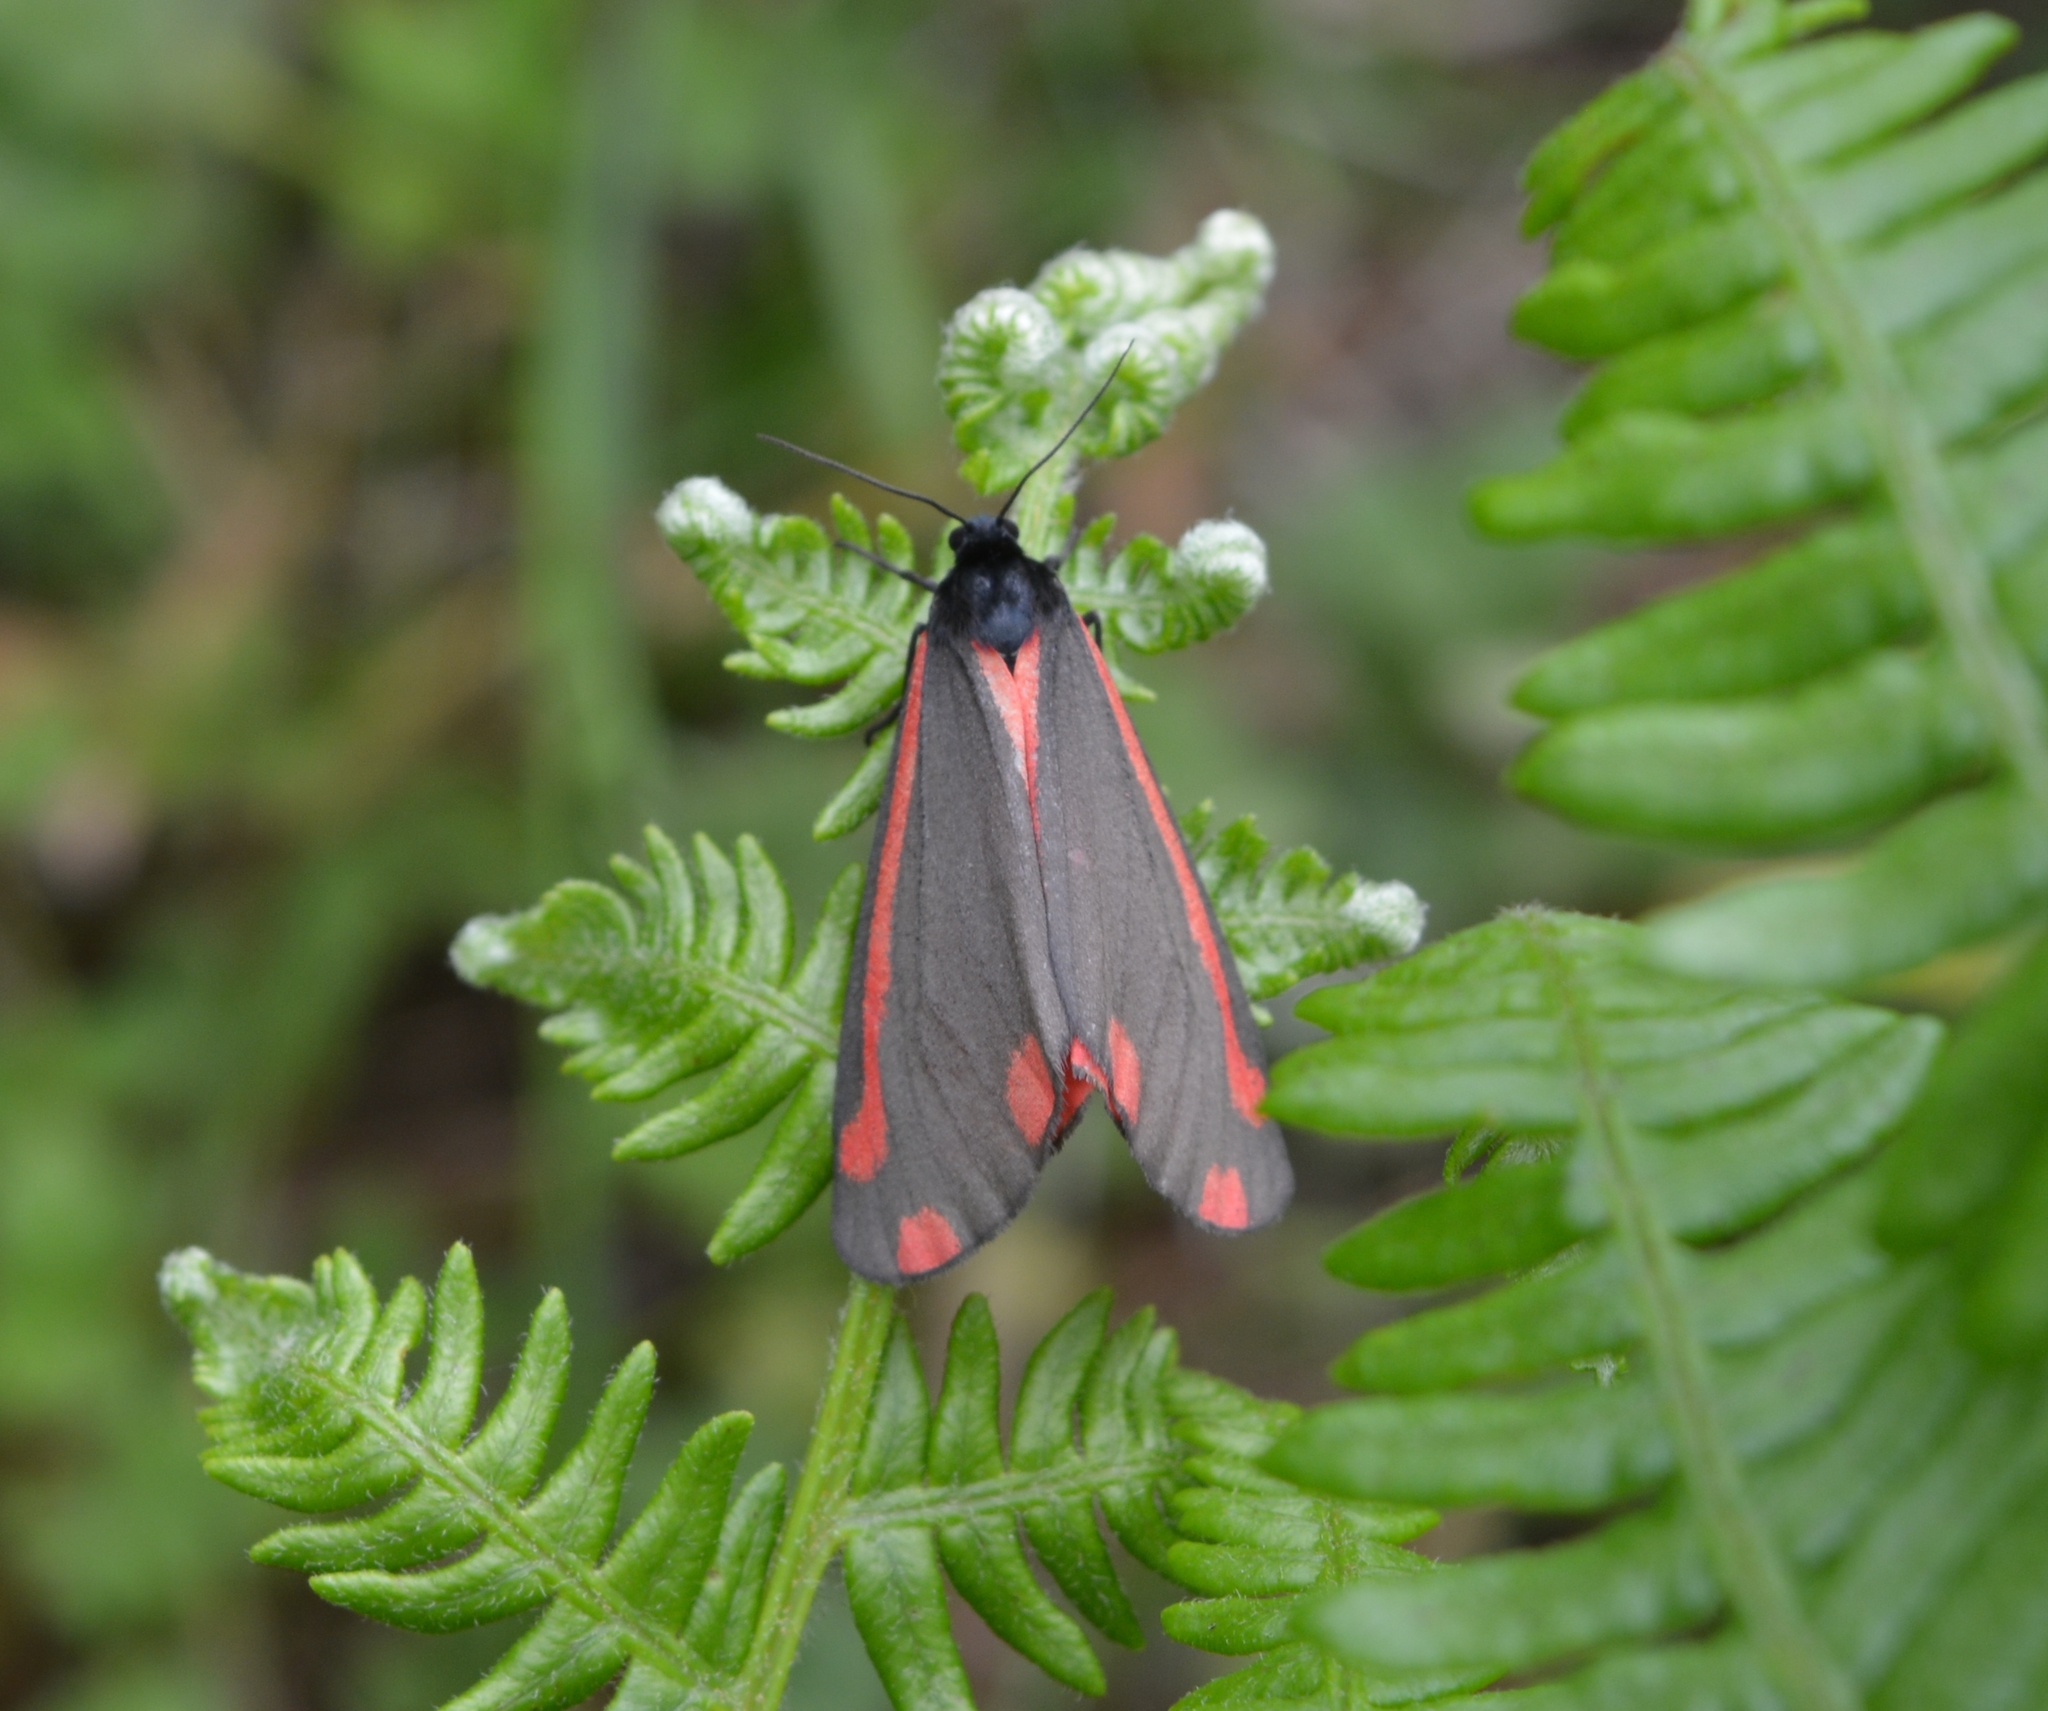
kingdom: Animalia
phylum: Arthropoda
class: Insecta
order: Lepidoptera
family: Erebidae
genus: Tyria
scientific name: Tyria jacobaeae
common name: Cinnabar
